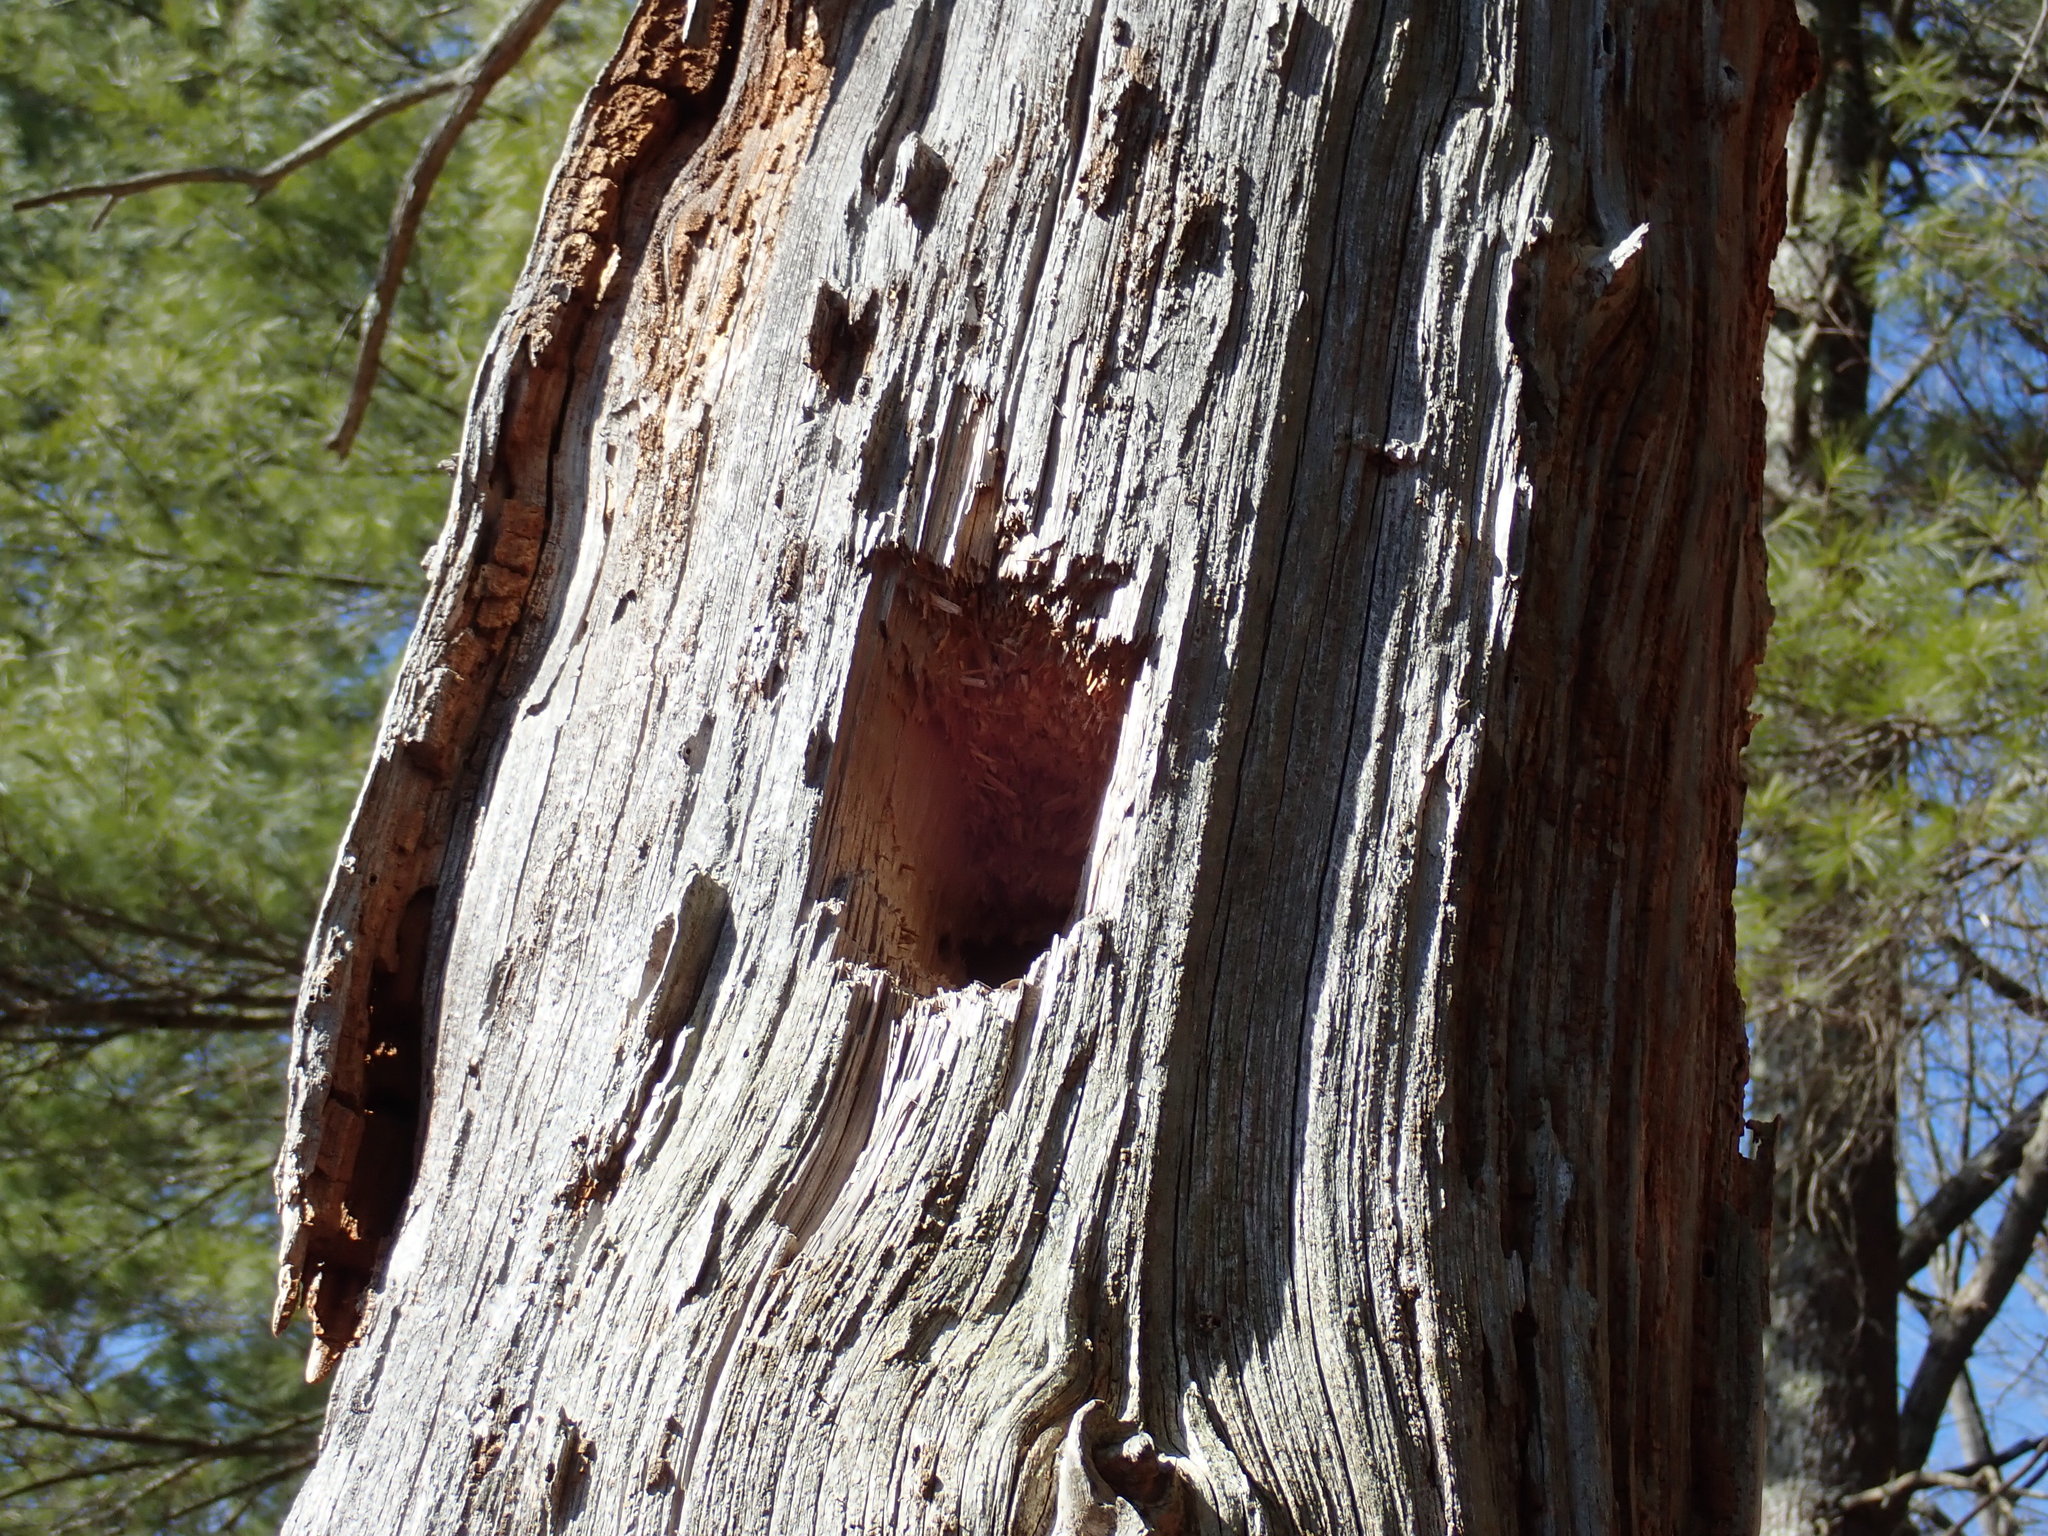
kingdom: Animalia
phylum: Chordata
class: Aves
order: Piciformes
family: Picidae
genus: Dryocopus
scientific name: Dryocopus pileatus
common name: Pileated woodpecker
